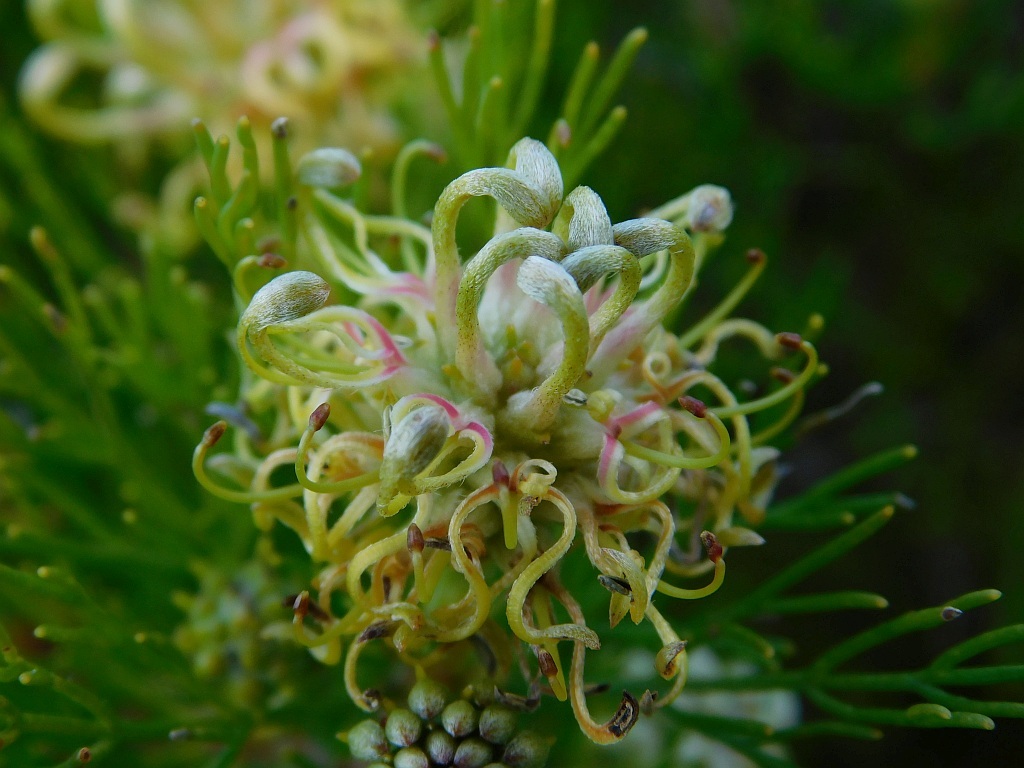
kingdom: Plantae
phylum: Tracheophyta
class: Magnoliopsida
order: Proteales
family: Proteaceae
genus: Serruria
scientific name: Serruria
